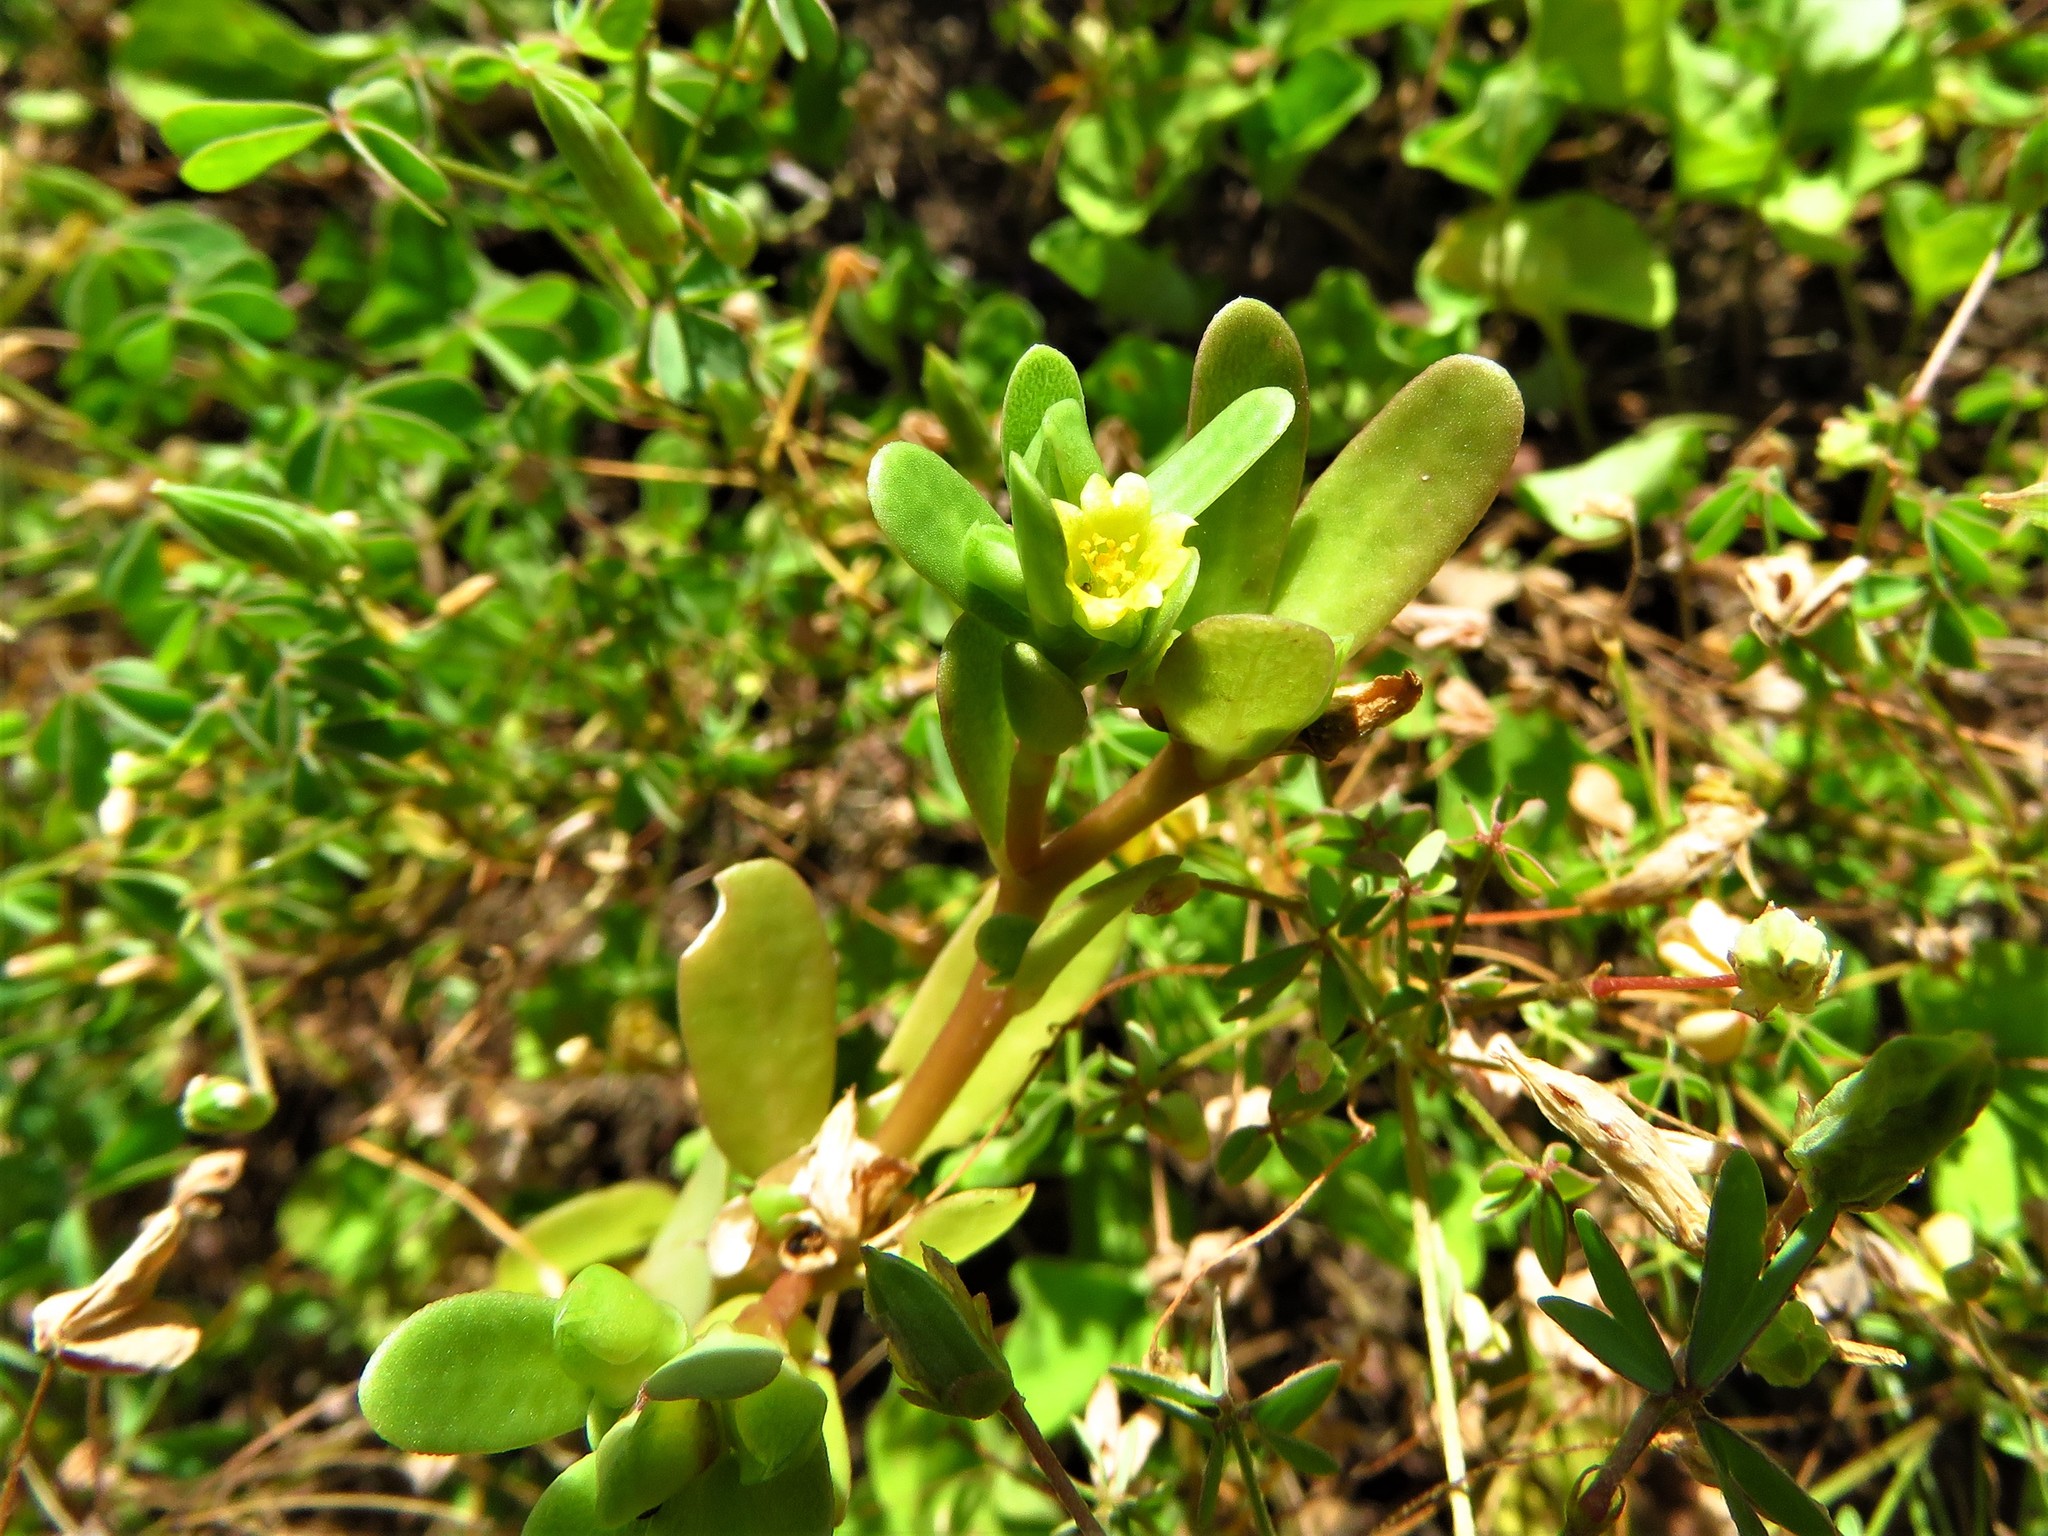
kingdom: Plantae
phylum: Tracheophyta
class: Magnoliopsida
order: Caryophyllales
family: Portulacaceae
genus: Portulaca
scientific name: Portulaca oleracea
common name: Common purslane
